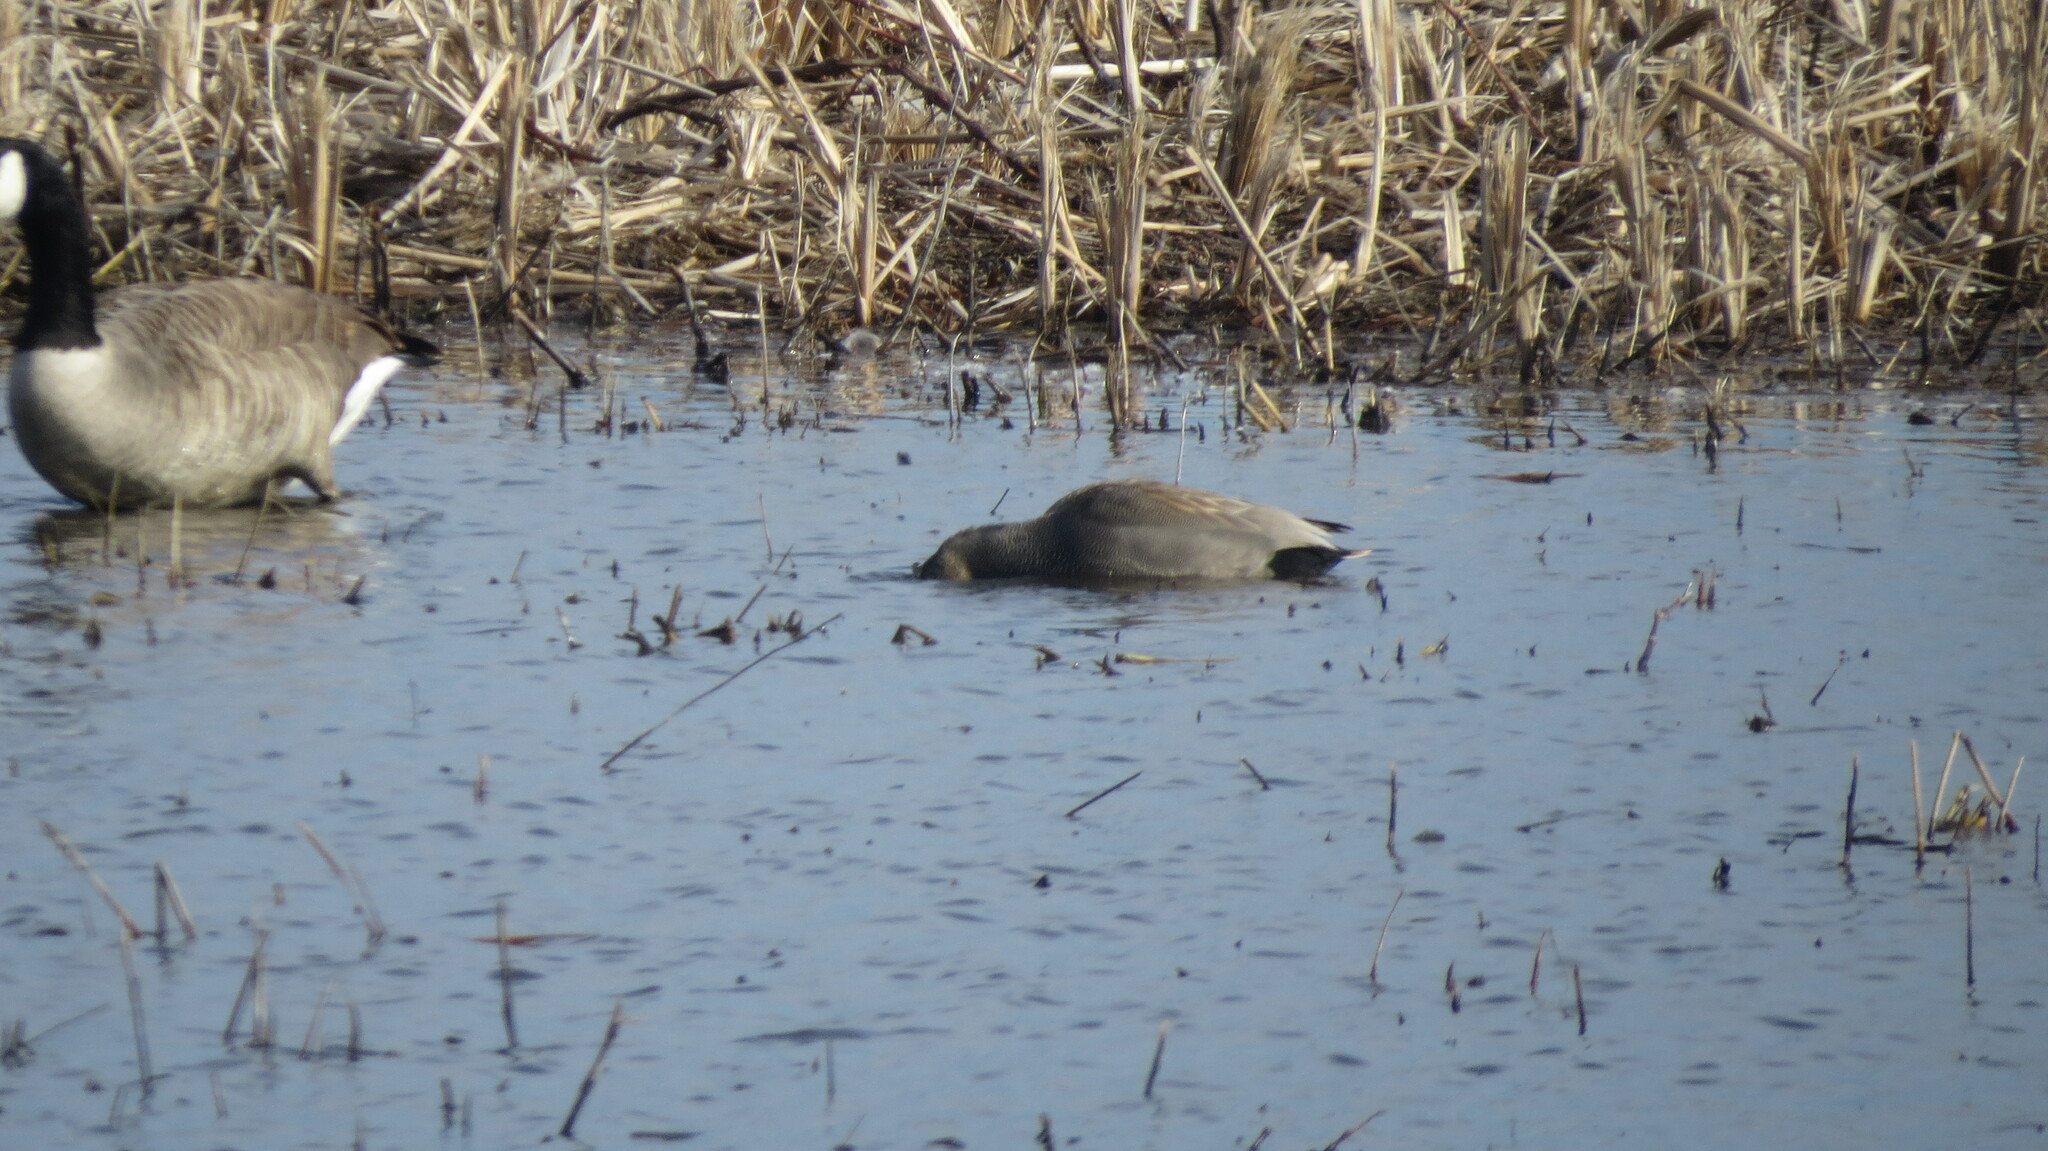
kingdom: Animalia
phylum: Chordata
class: Aves
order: Anseriformes
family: Anatidae
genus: Branta
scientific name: Branta canadensis
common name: Canada goose
